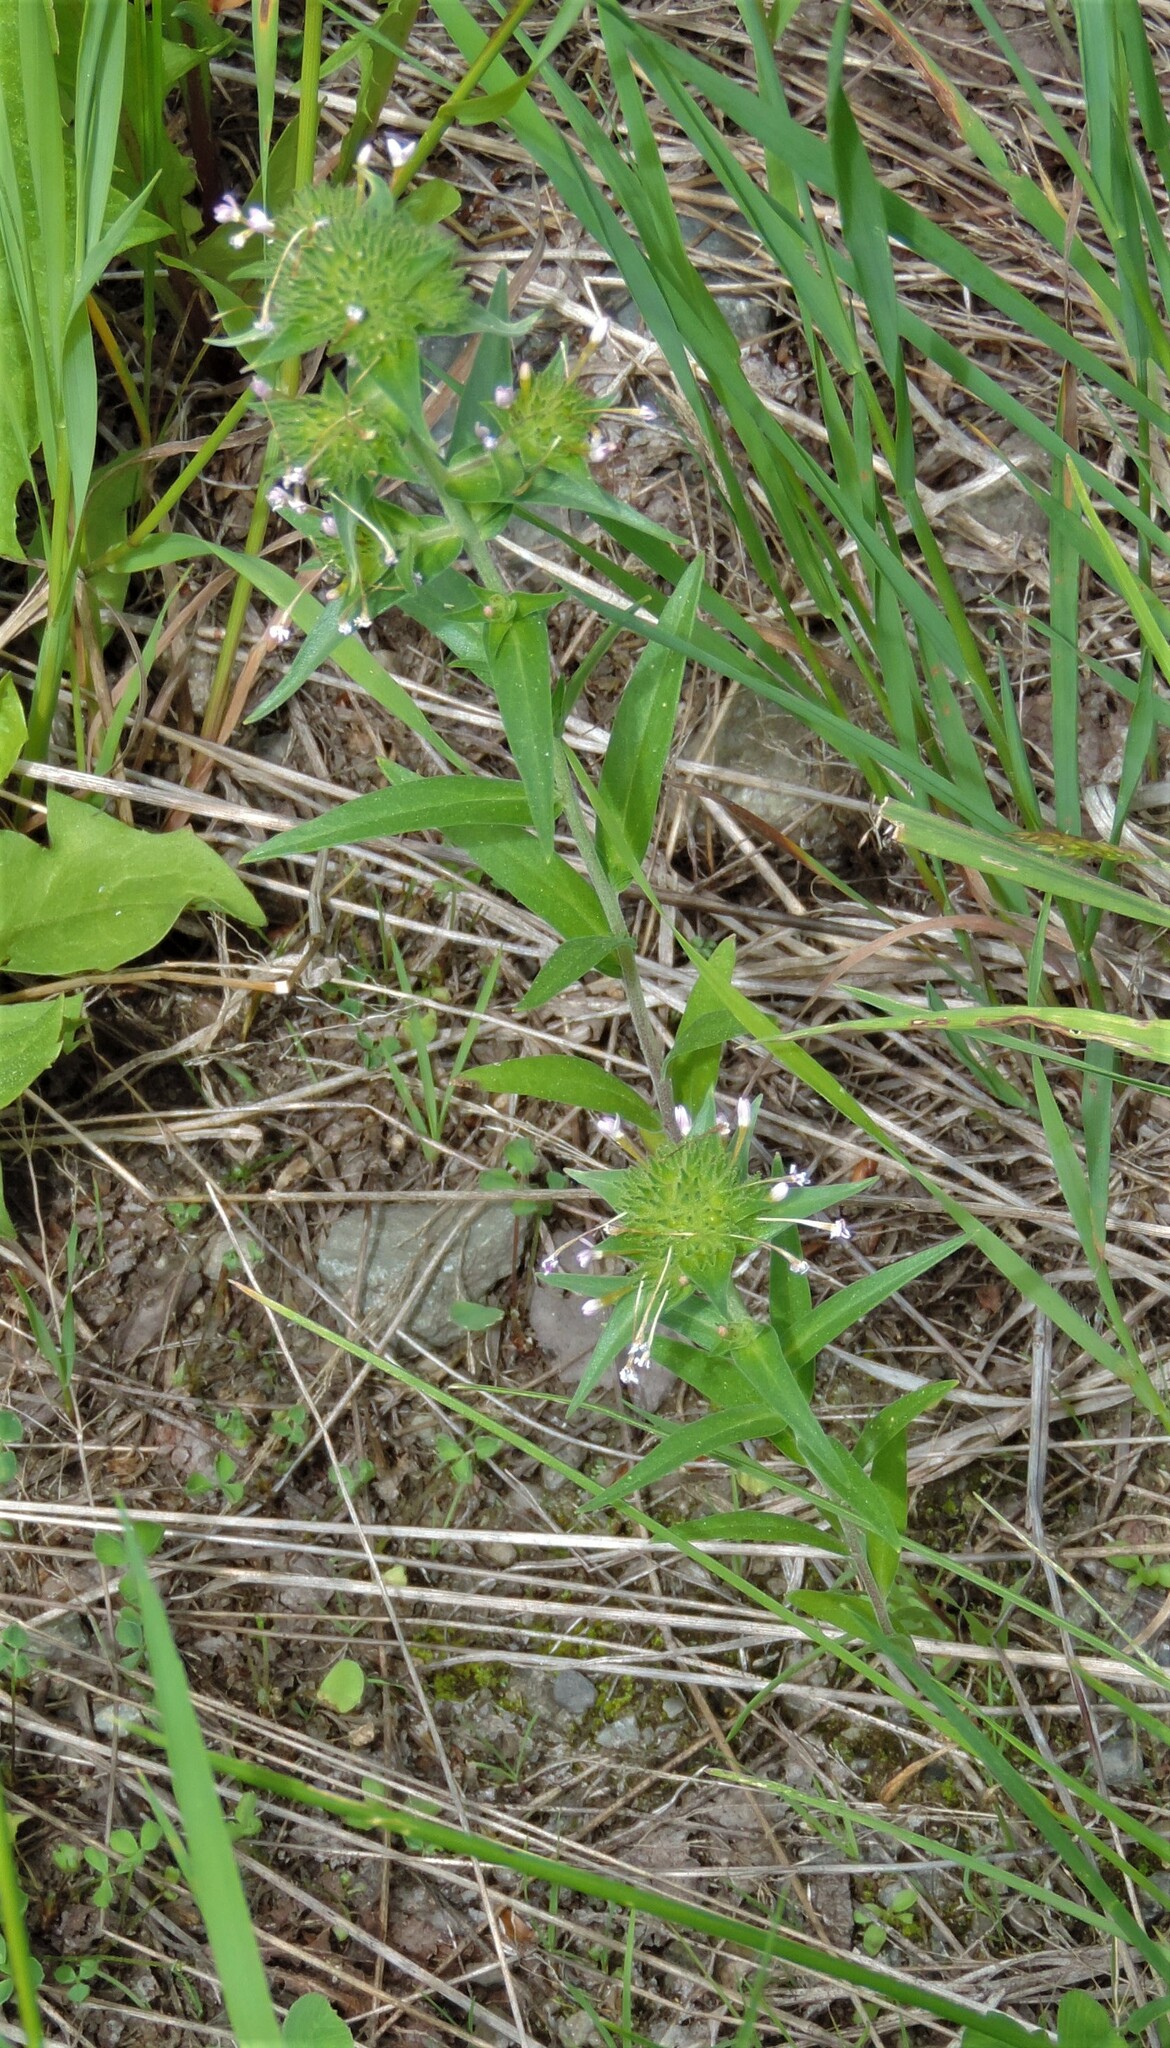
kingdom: Plantae
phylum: Tracheophyta
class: Magnoliopsida
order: Ericales
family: Polemoniaceae
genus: Collomia
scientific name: Collomia linearis
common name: Tiny trumpet
